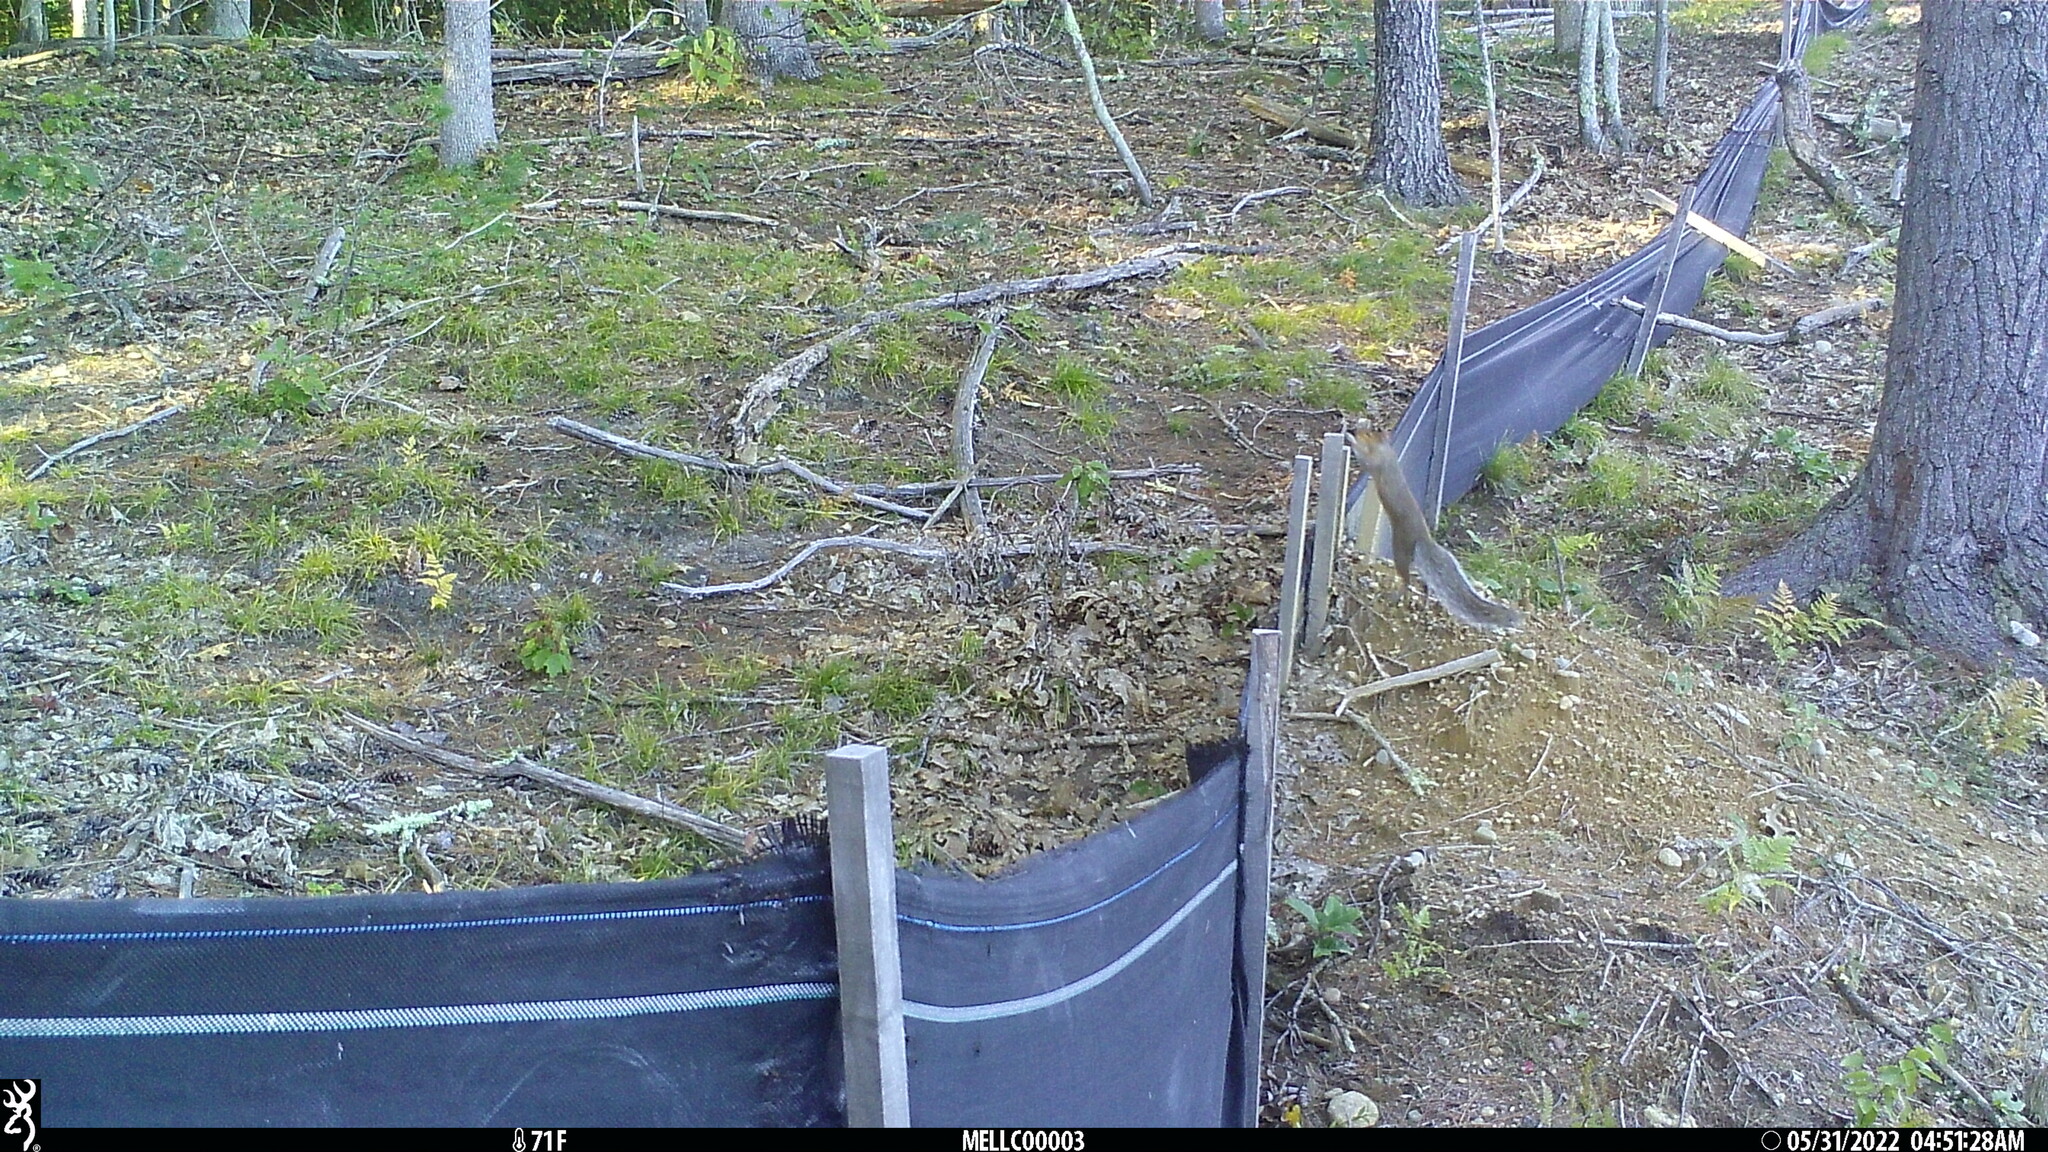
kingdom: Animalia
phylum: Chordata
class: Mammalia
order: Rodentia
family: Sciuridae
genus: Sciurus
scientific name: Sciurus carolinensis
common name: Eastern gray squirrel
